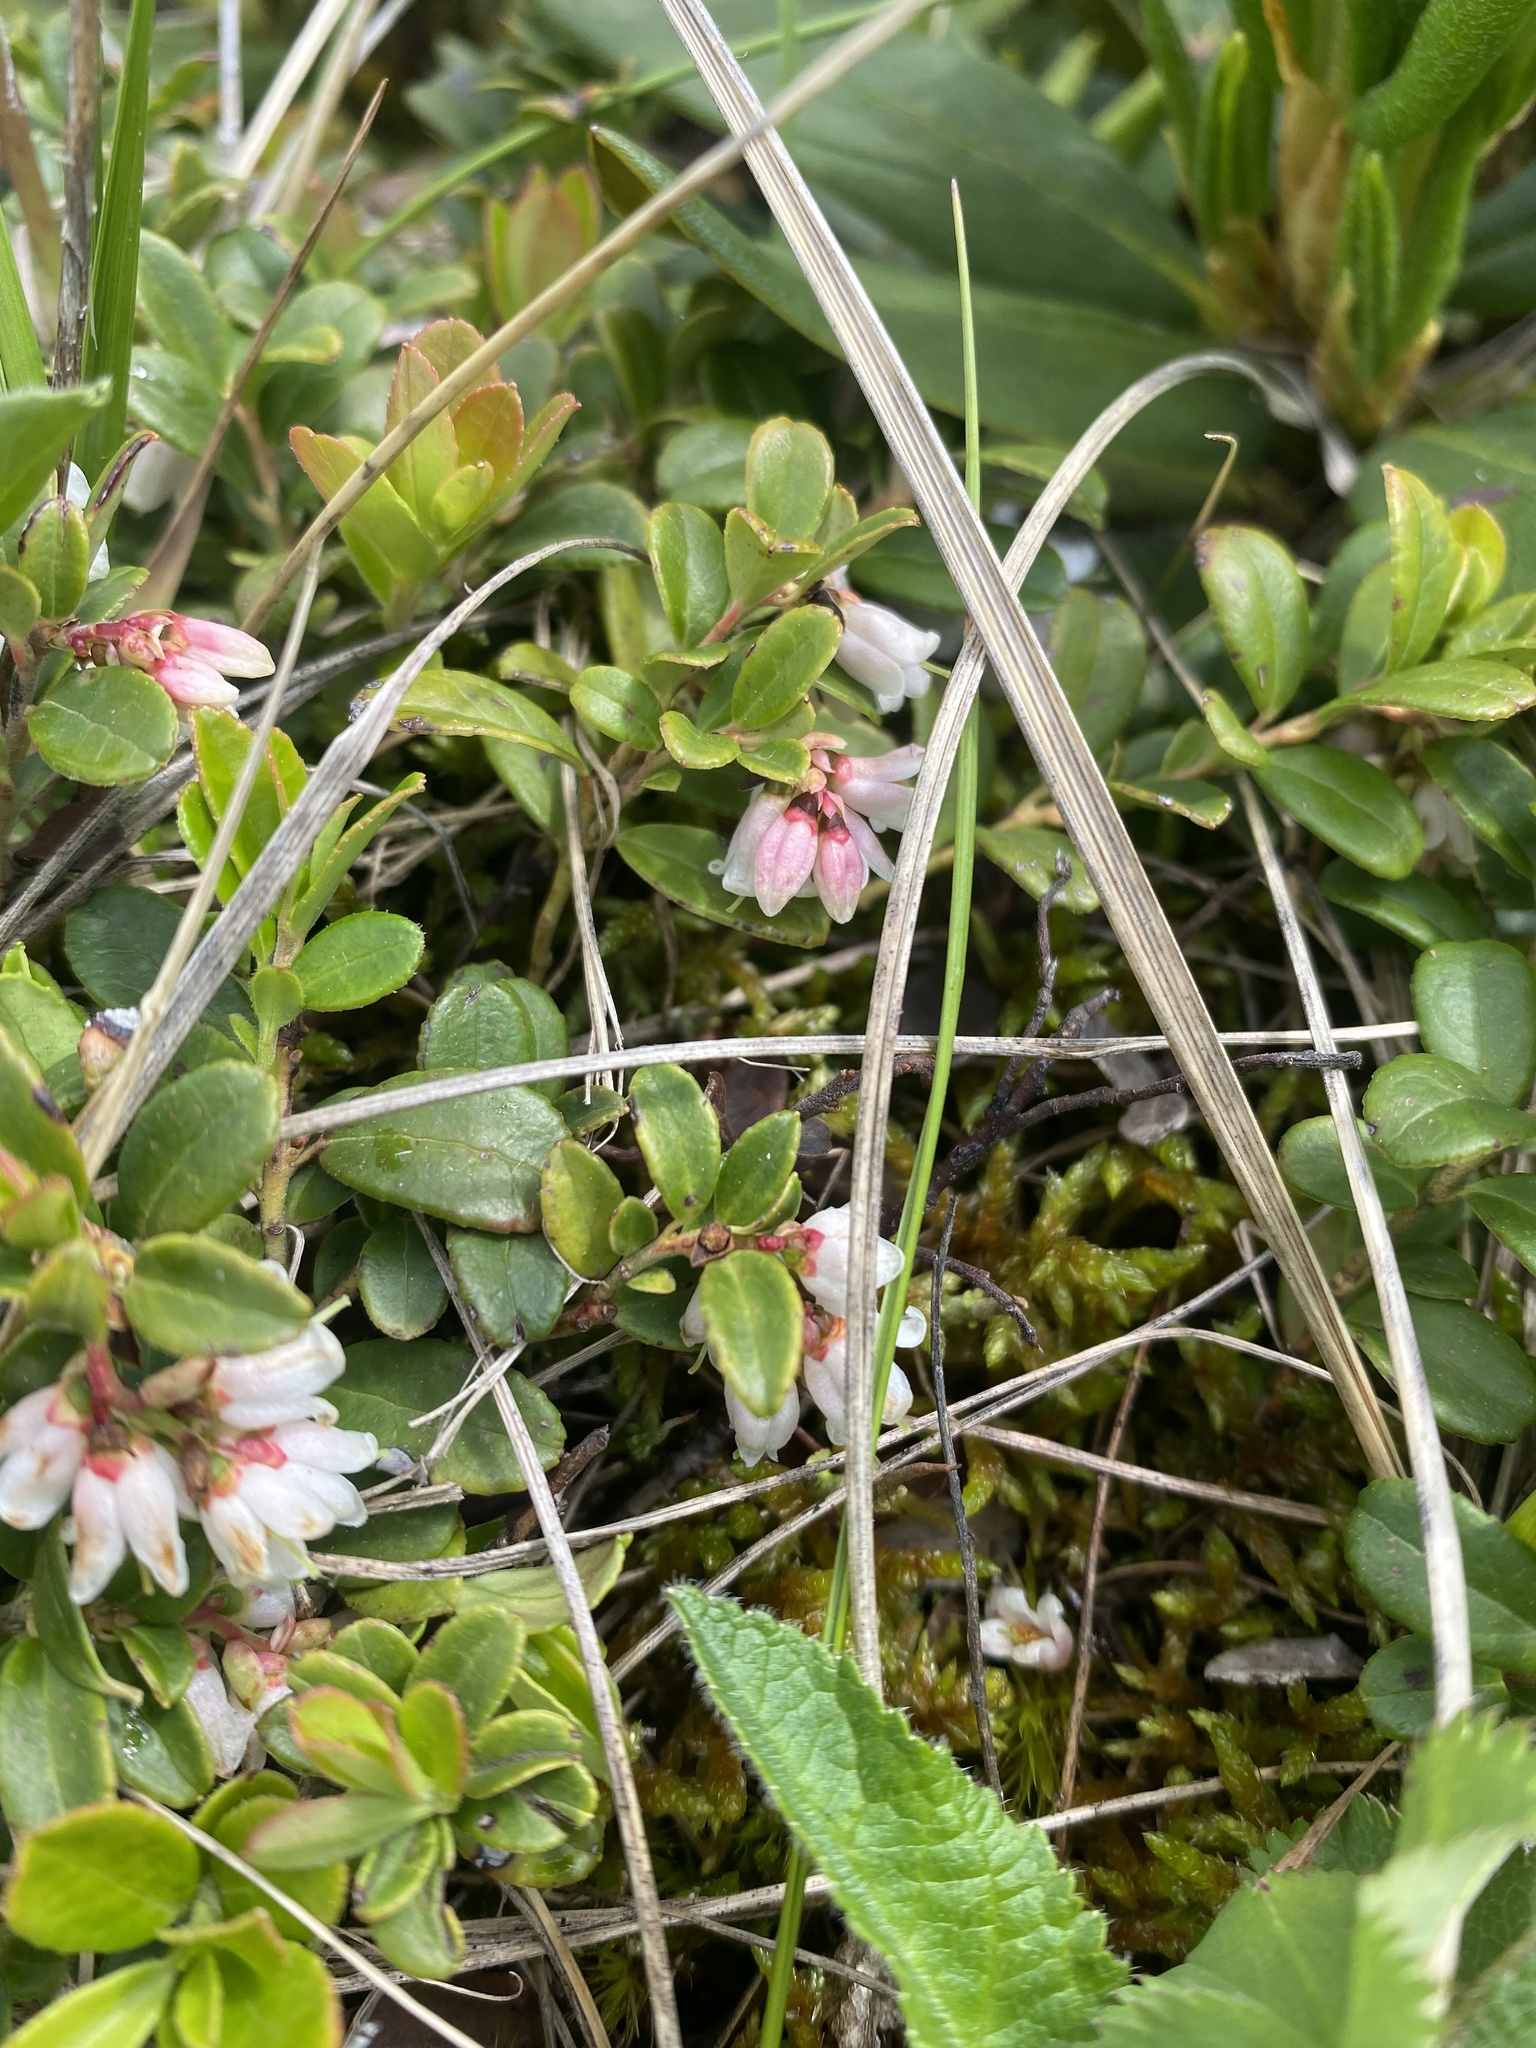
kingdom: Plantae
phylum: Tracheophyta
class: Magnoliopsida
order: Ericales
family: Ericaceae
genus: Vaccinium
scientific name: Vaccinium vitis-idaea
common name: Cowberry
